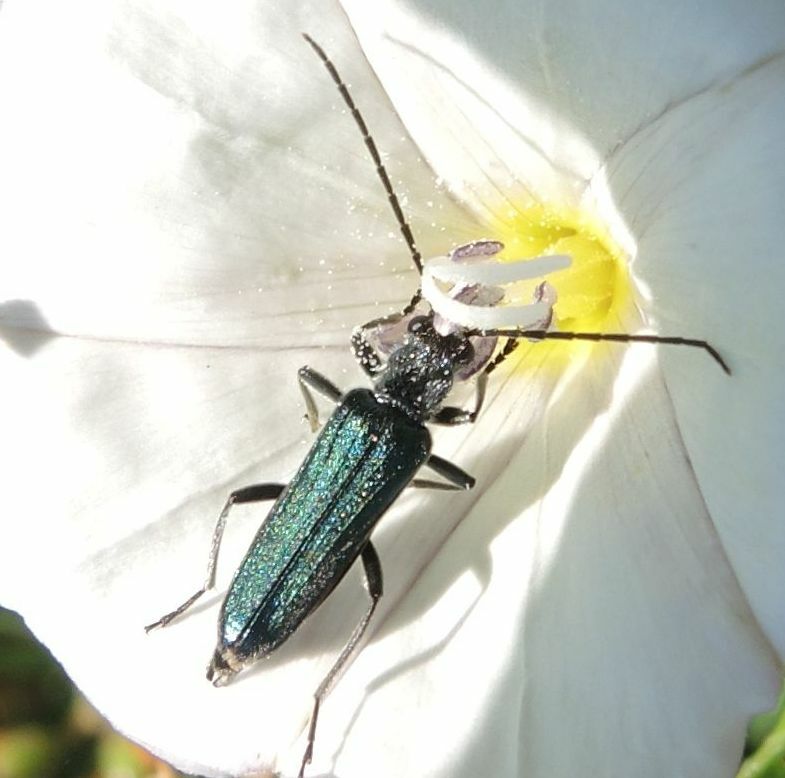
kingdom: Animalia
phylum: Arthropoda
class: Insecta
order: Coleoptera
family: Oedemeridae
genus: Anogcodes
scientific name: Anogcodes ruficollis
